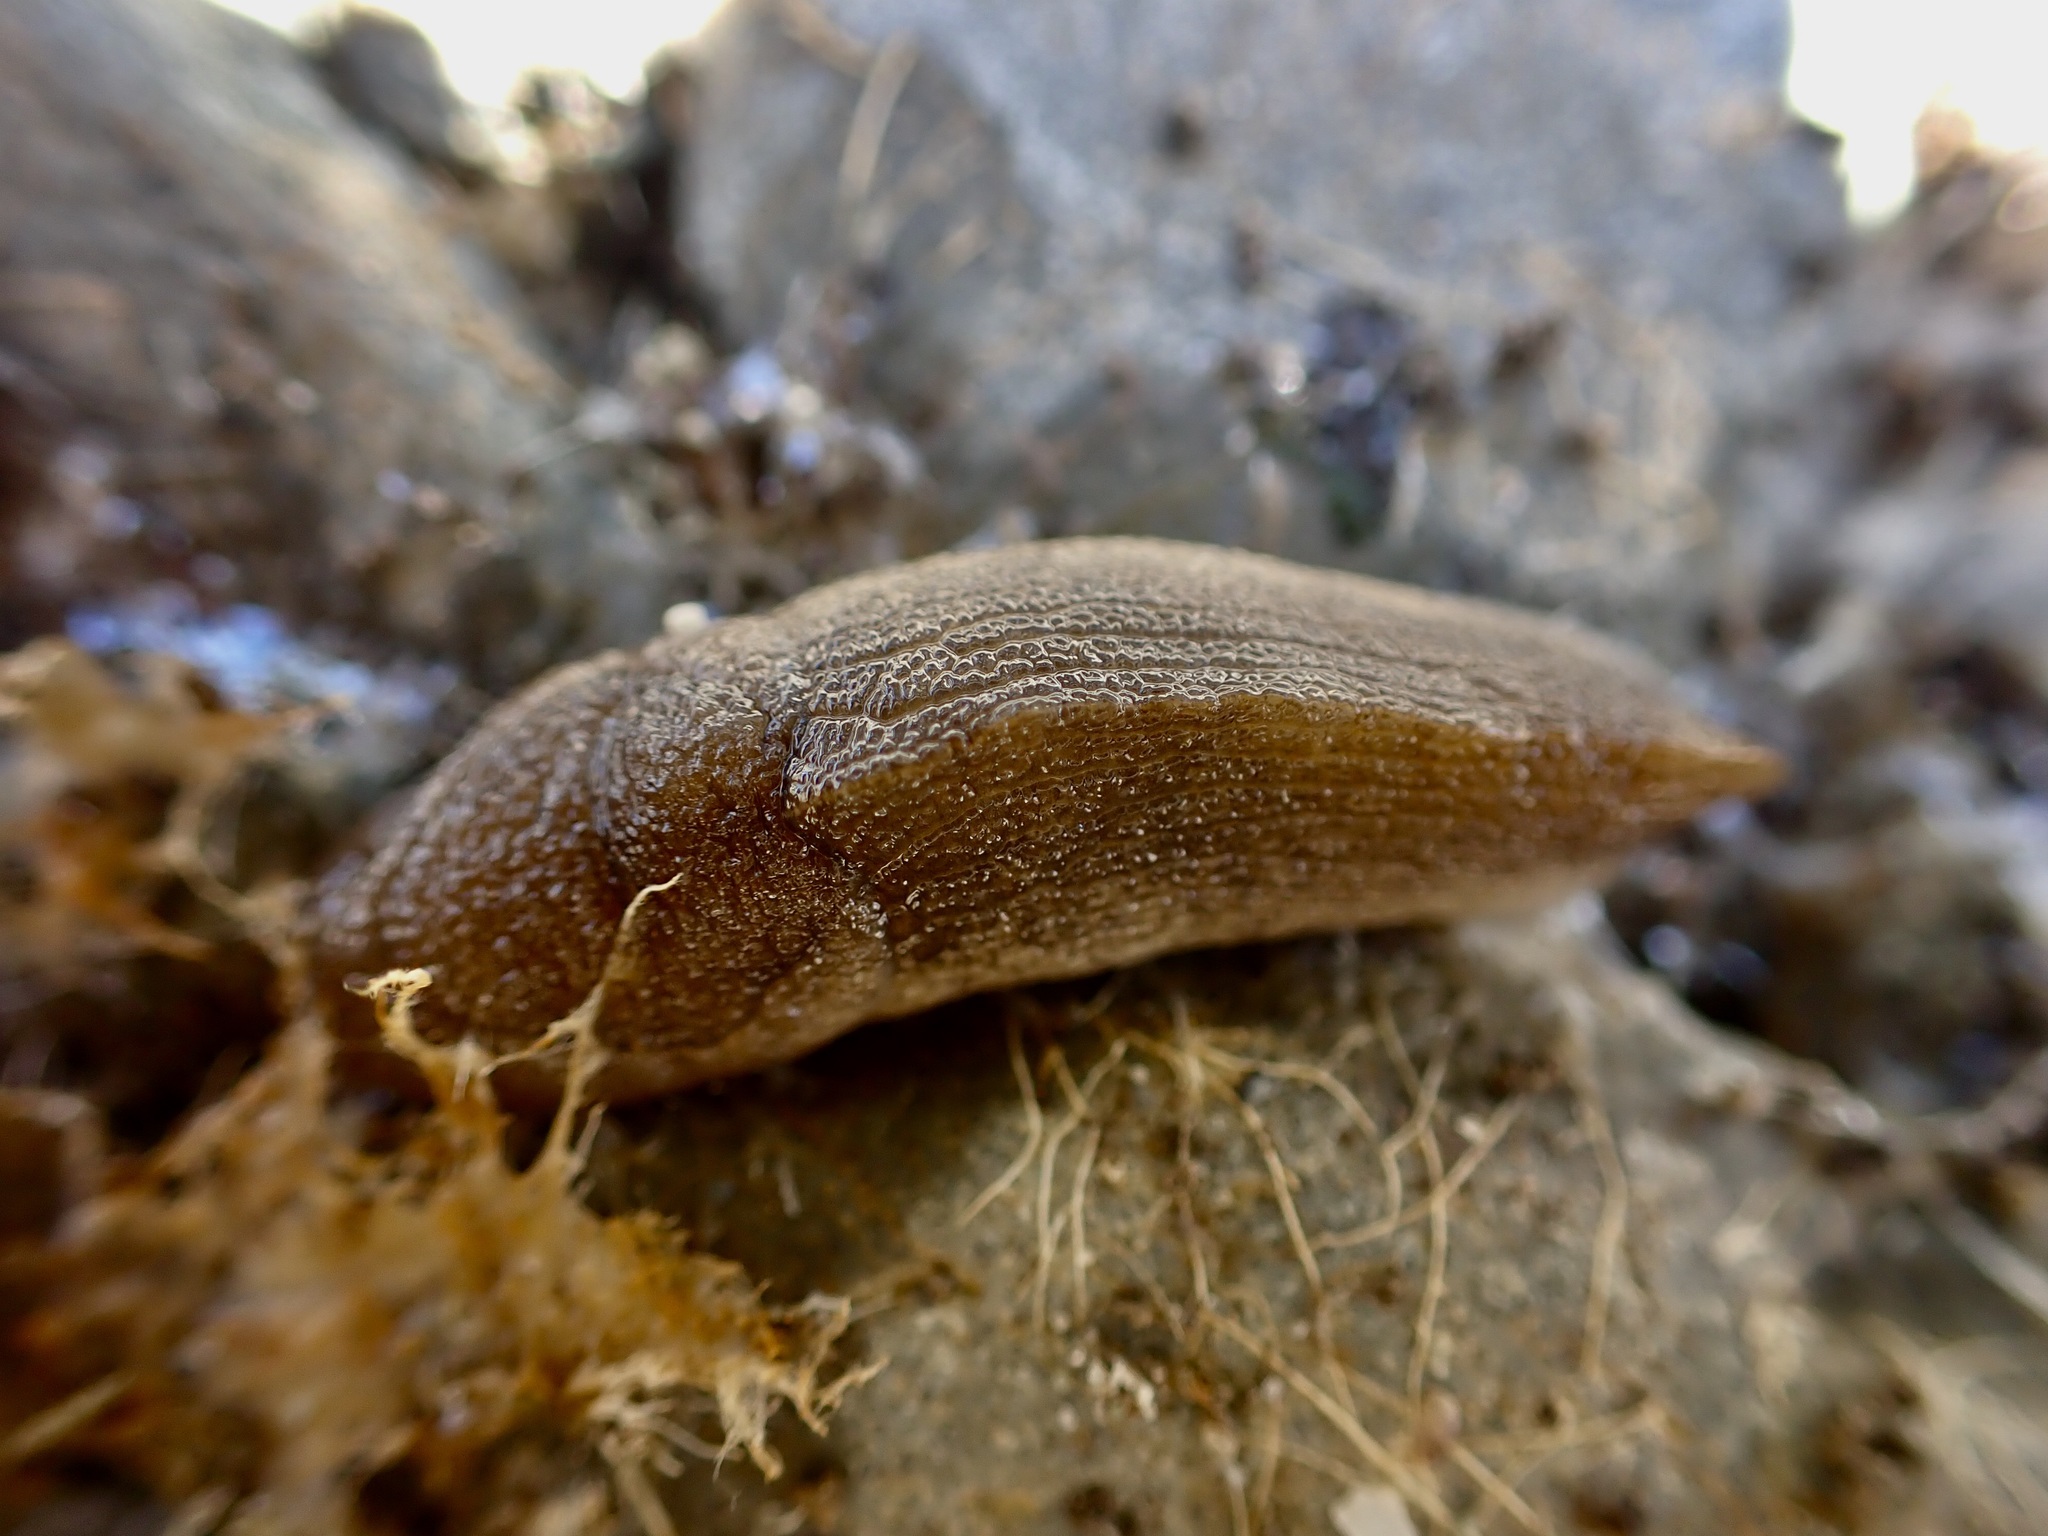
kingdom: Animalia
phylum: Mollusca
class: Gastropoda
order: Stylommatophora
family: Milacidae
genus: Milax
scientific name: Milax gagates
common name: Greenhouse slug
